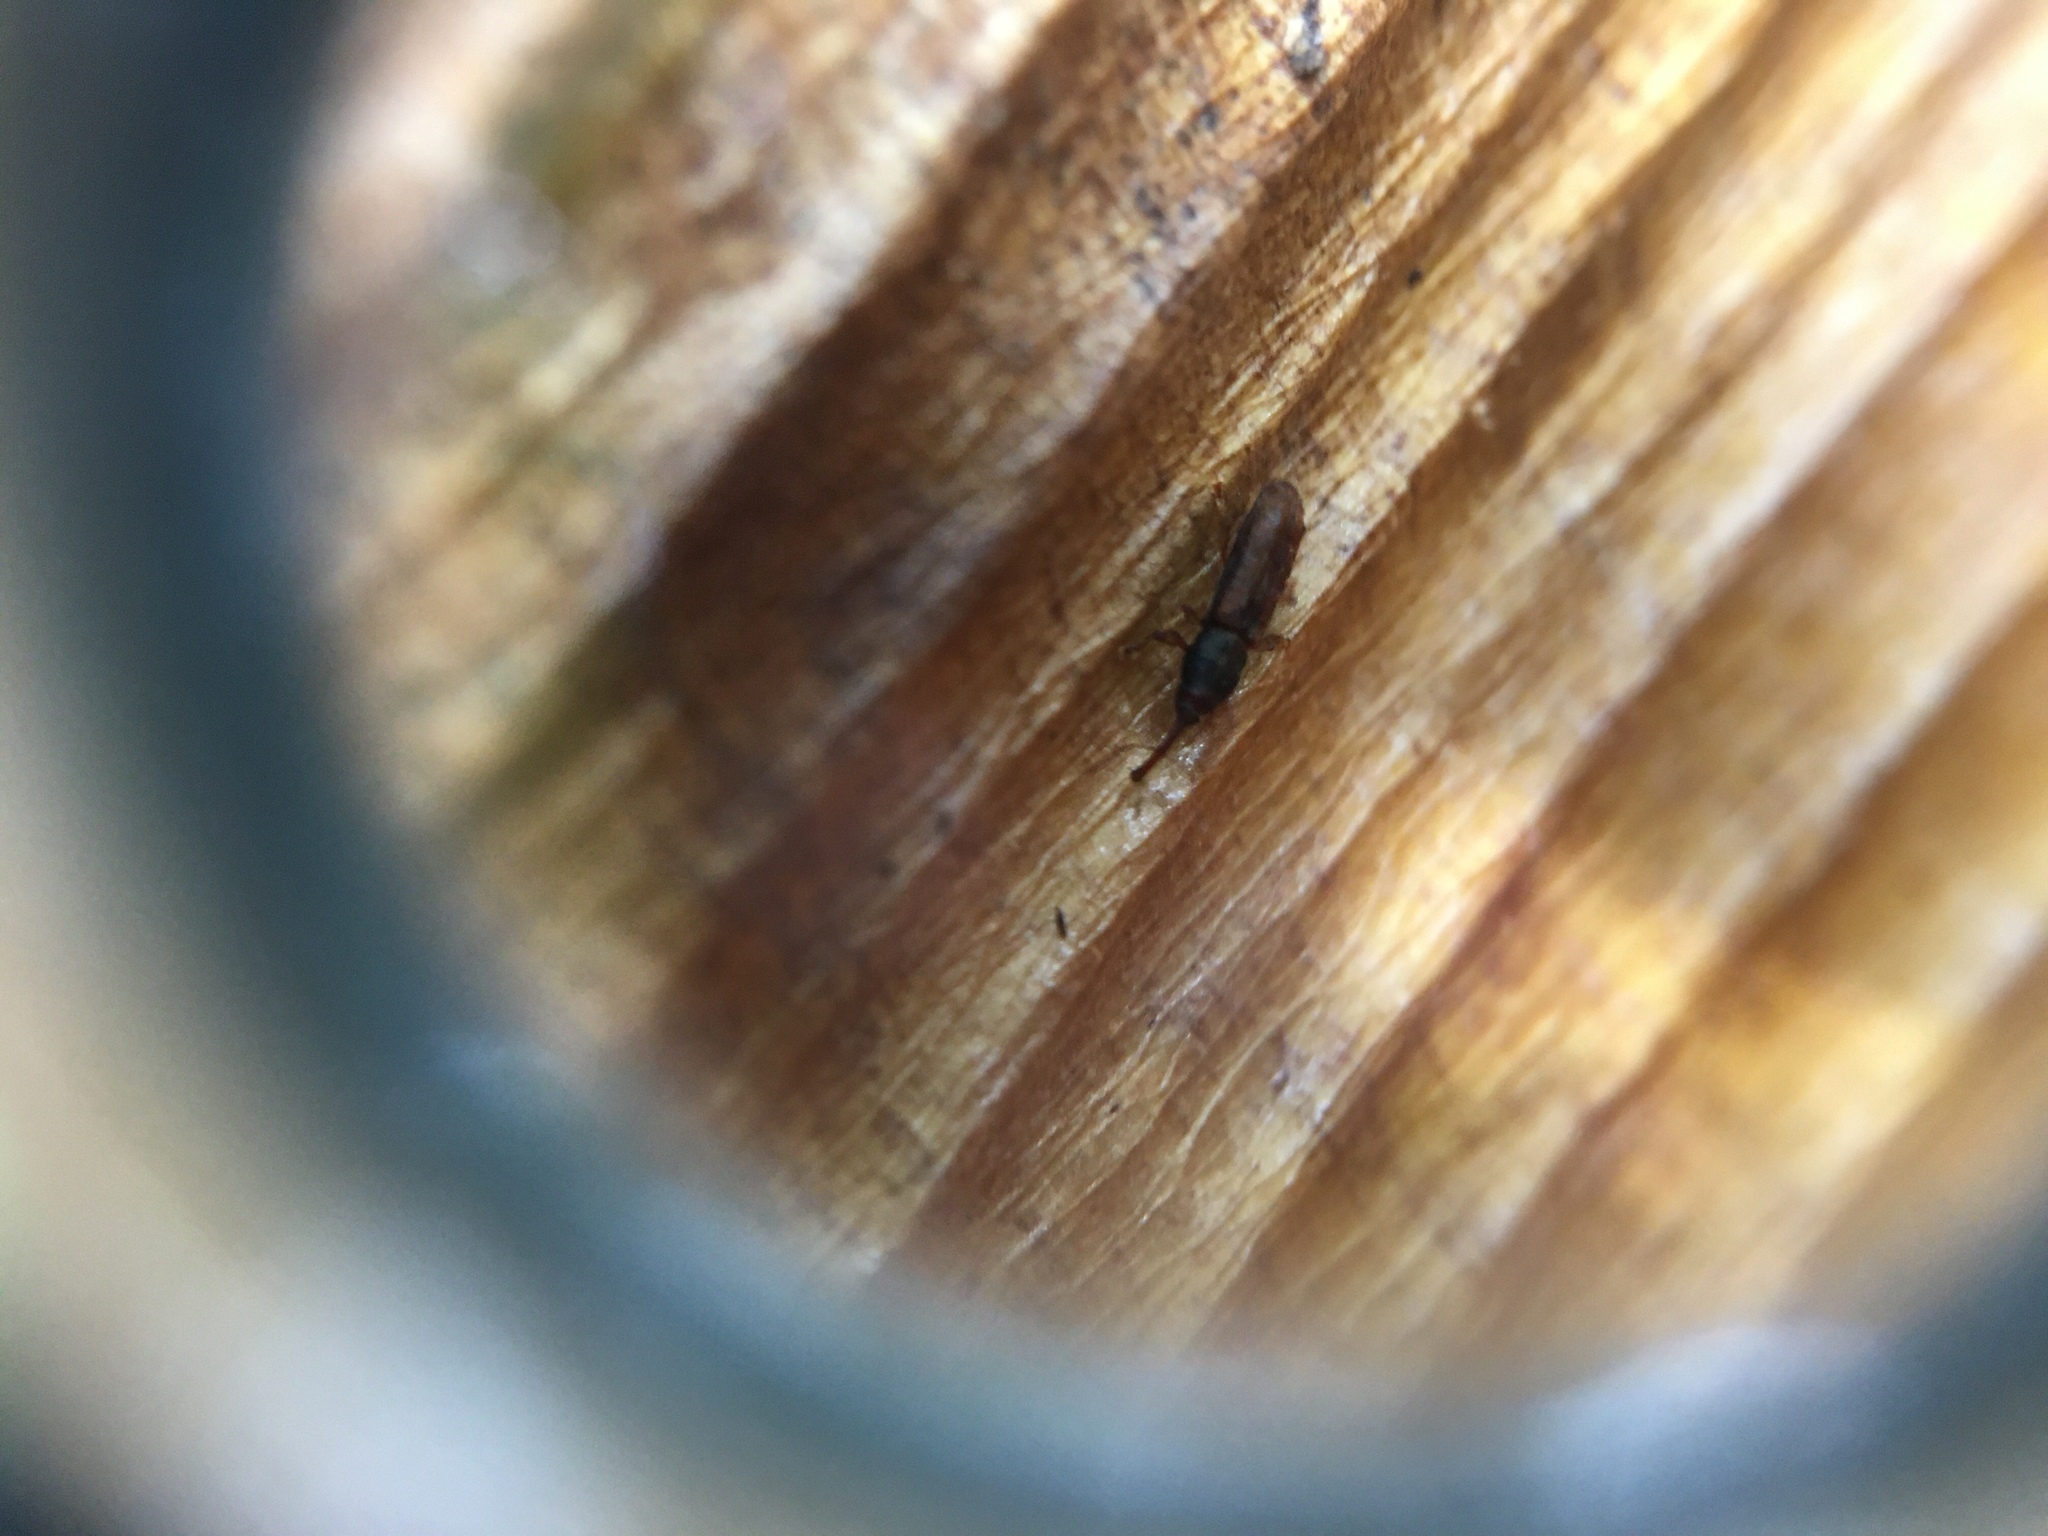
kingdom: Animalia
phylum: Arthropoda
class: Insecta
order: Coleoptera
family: Curculionidae
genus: Arecocryptus
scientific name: Arecocryptus bellus
